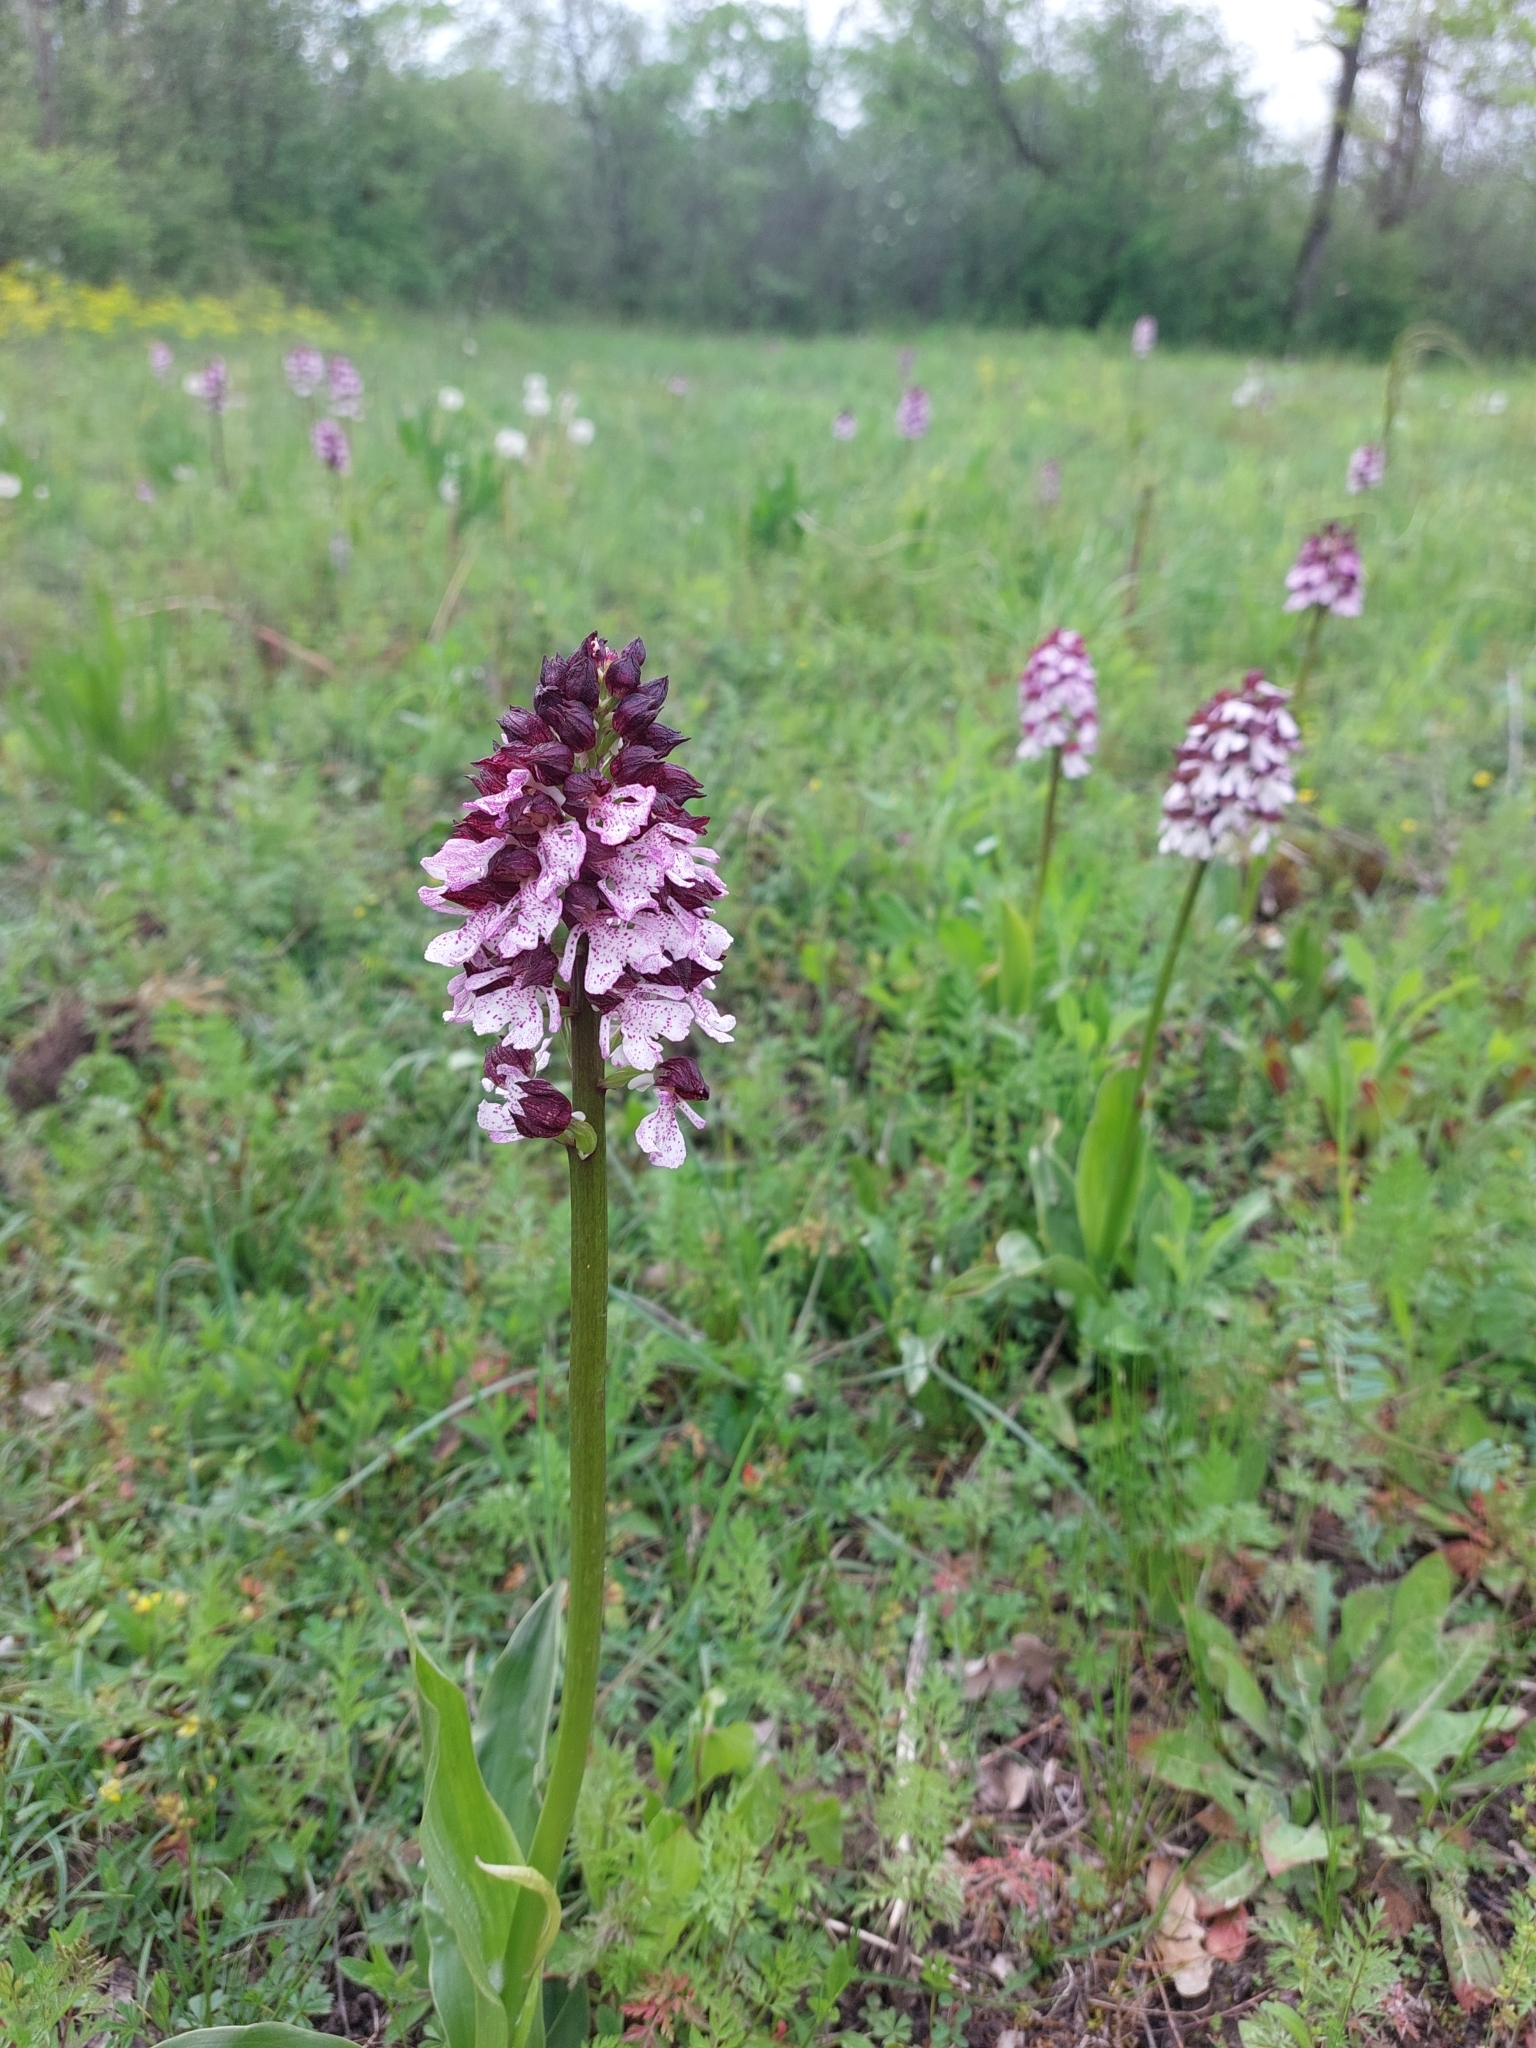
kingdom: Plantae
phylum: Tracheophyta
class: Liliopsida
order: Asparagales
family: Orchidaceae
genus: Orchis
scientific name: Orchis purpurea
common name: Lady orchid
